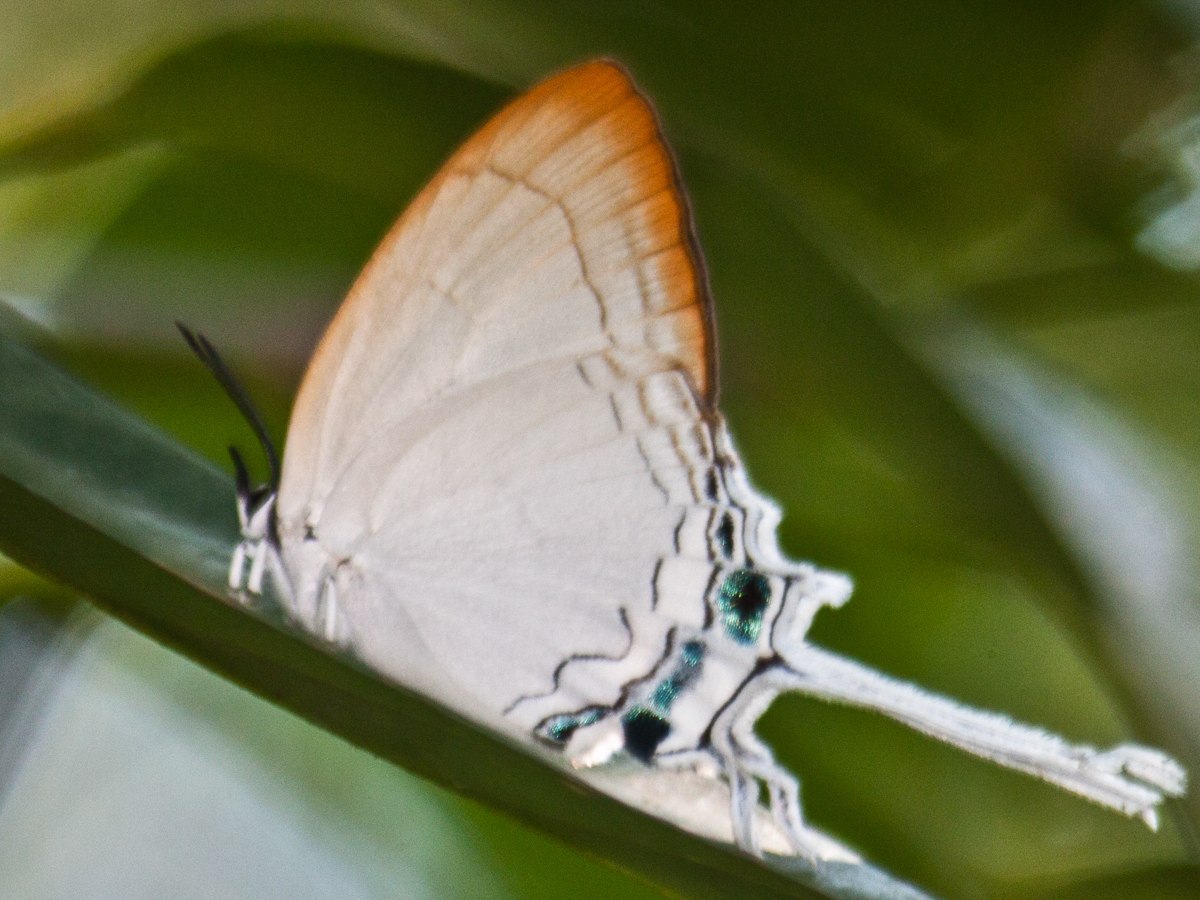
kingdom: Animalia
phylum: Arthropoda
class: Insecta
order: Lepidoptera
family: Lycaenidae
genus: Cheritra
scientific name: Cheritra freja
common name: Common imperial
